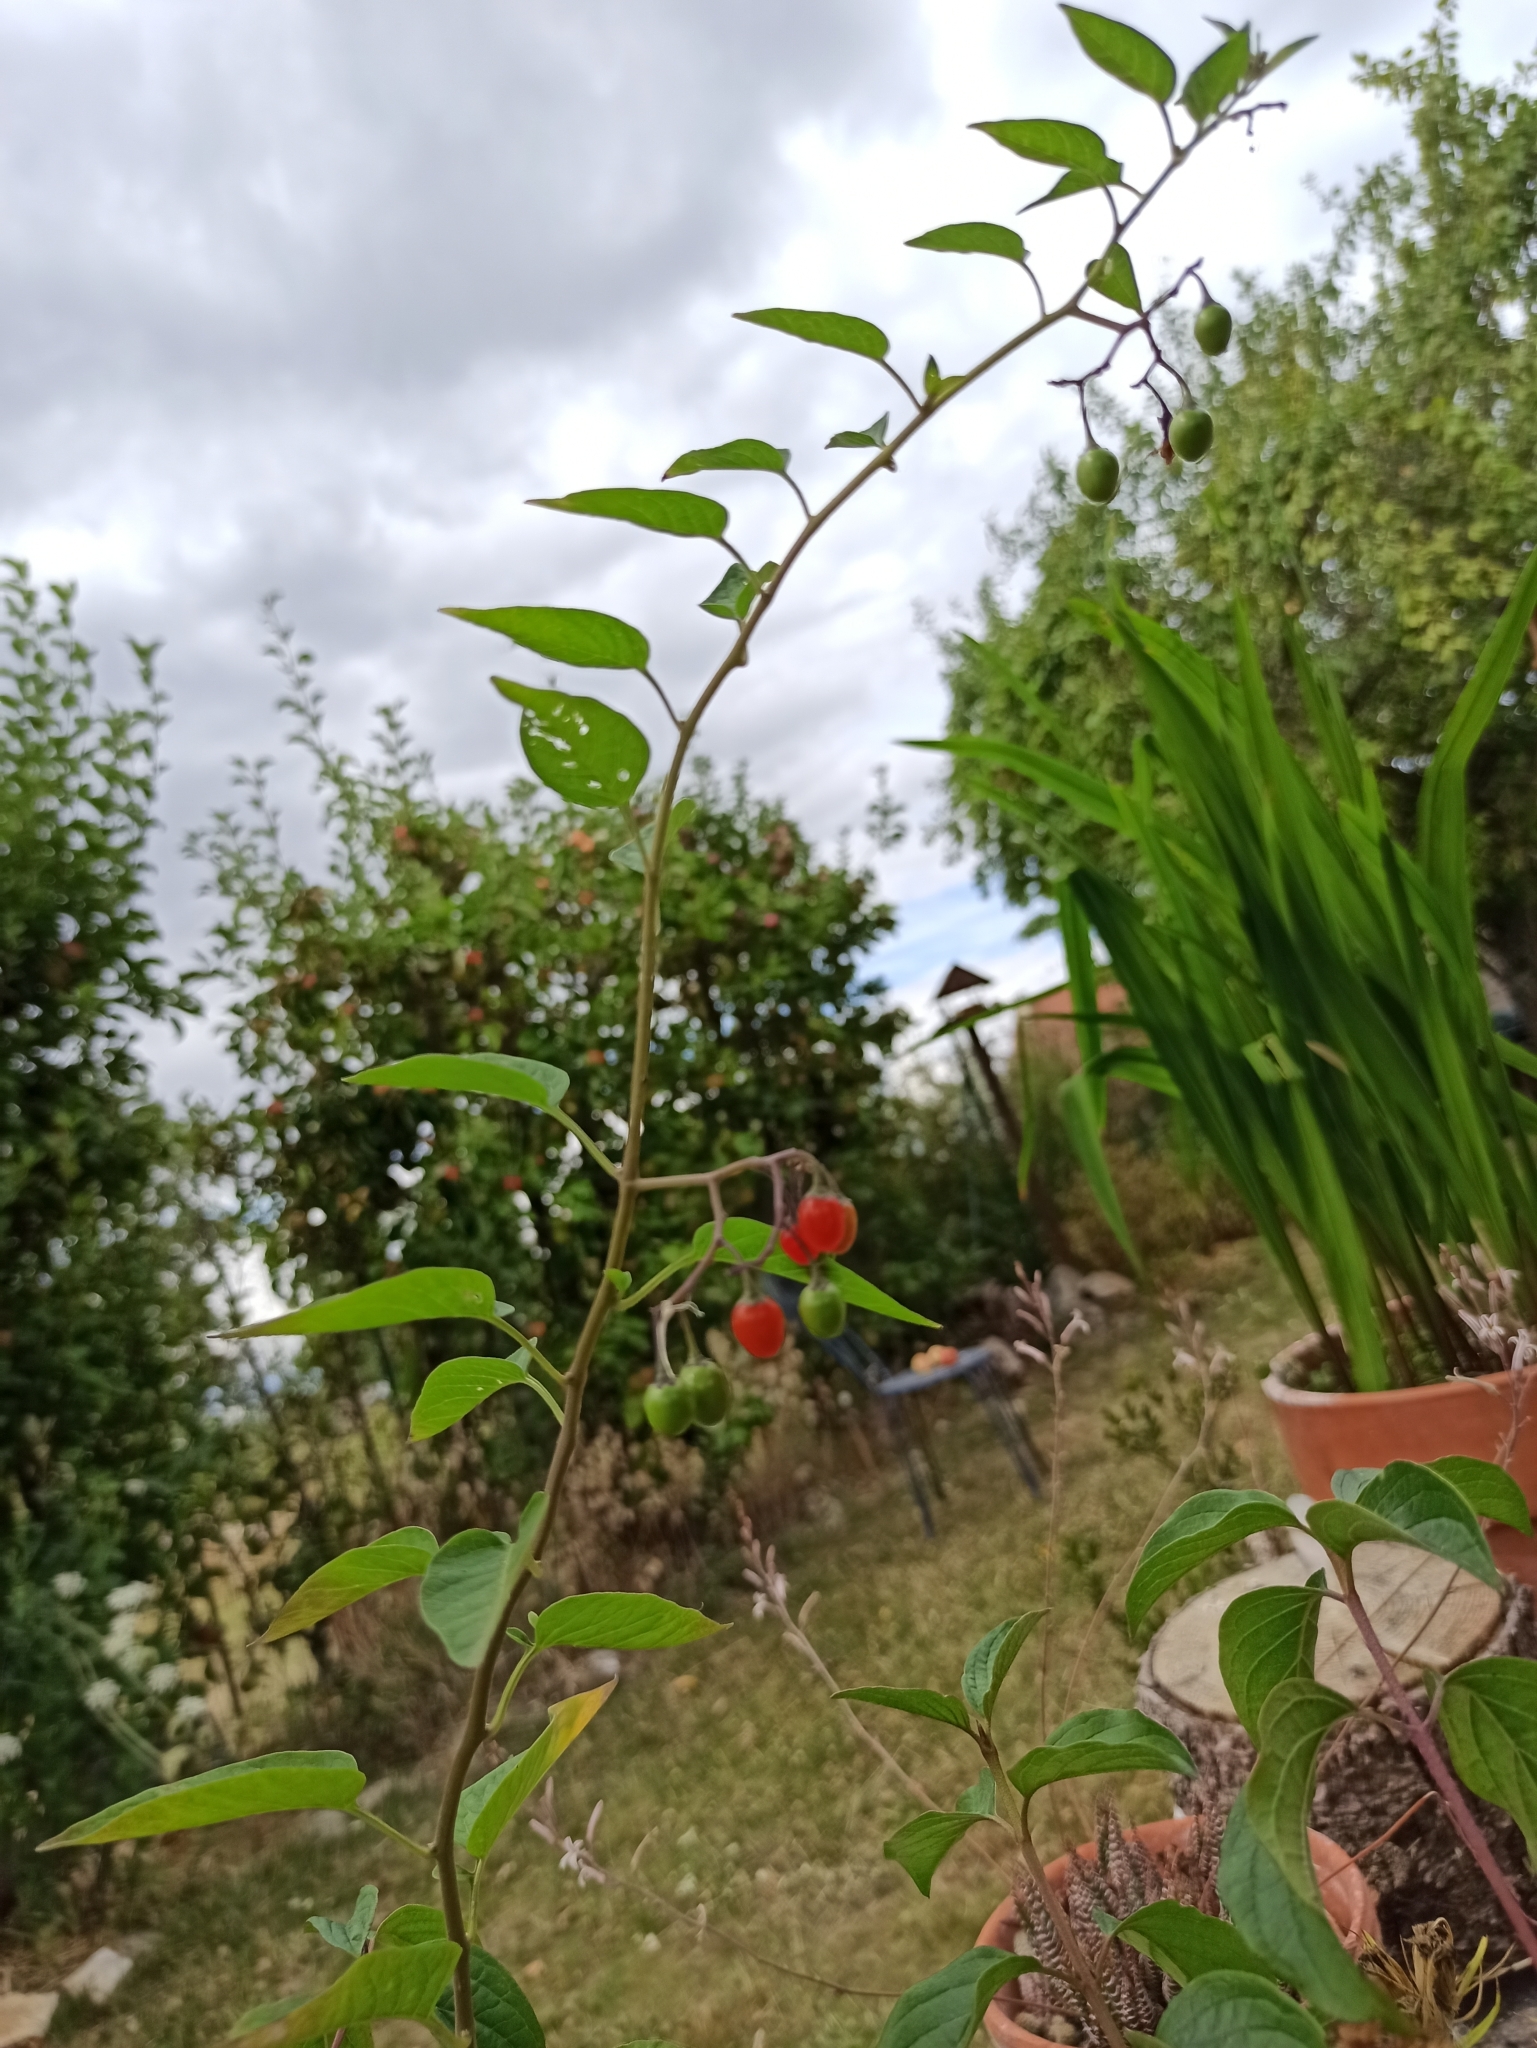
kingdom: Plantae
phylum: Tracheophyta
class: Magnoliopsida
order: Solanales
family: Solanaceae
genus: Solanum
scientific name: Solanum dulcamara
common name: Climbing nightshade
